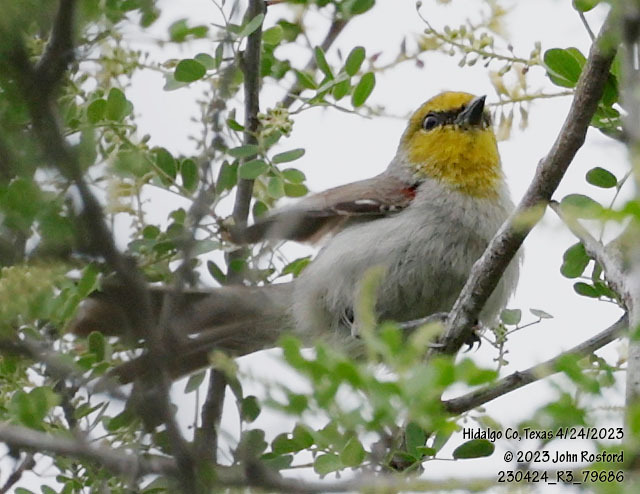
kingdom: Animalia
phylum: Chordata
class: Aves
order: Passeriformes
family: Remizidae
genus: Auriparus
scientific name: Auriparus flaviceps
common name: Verdin
